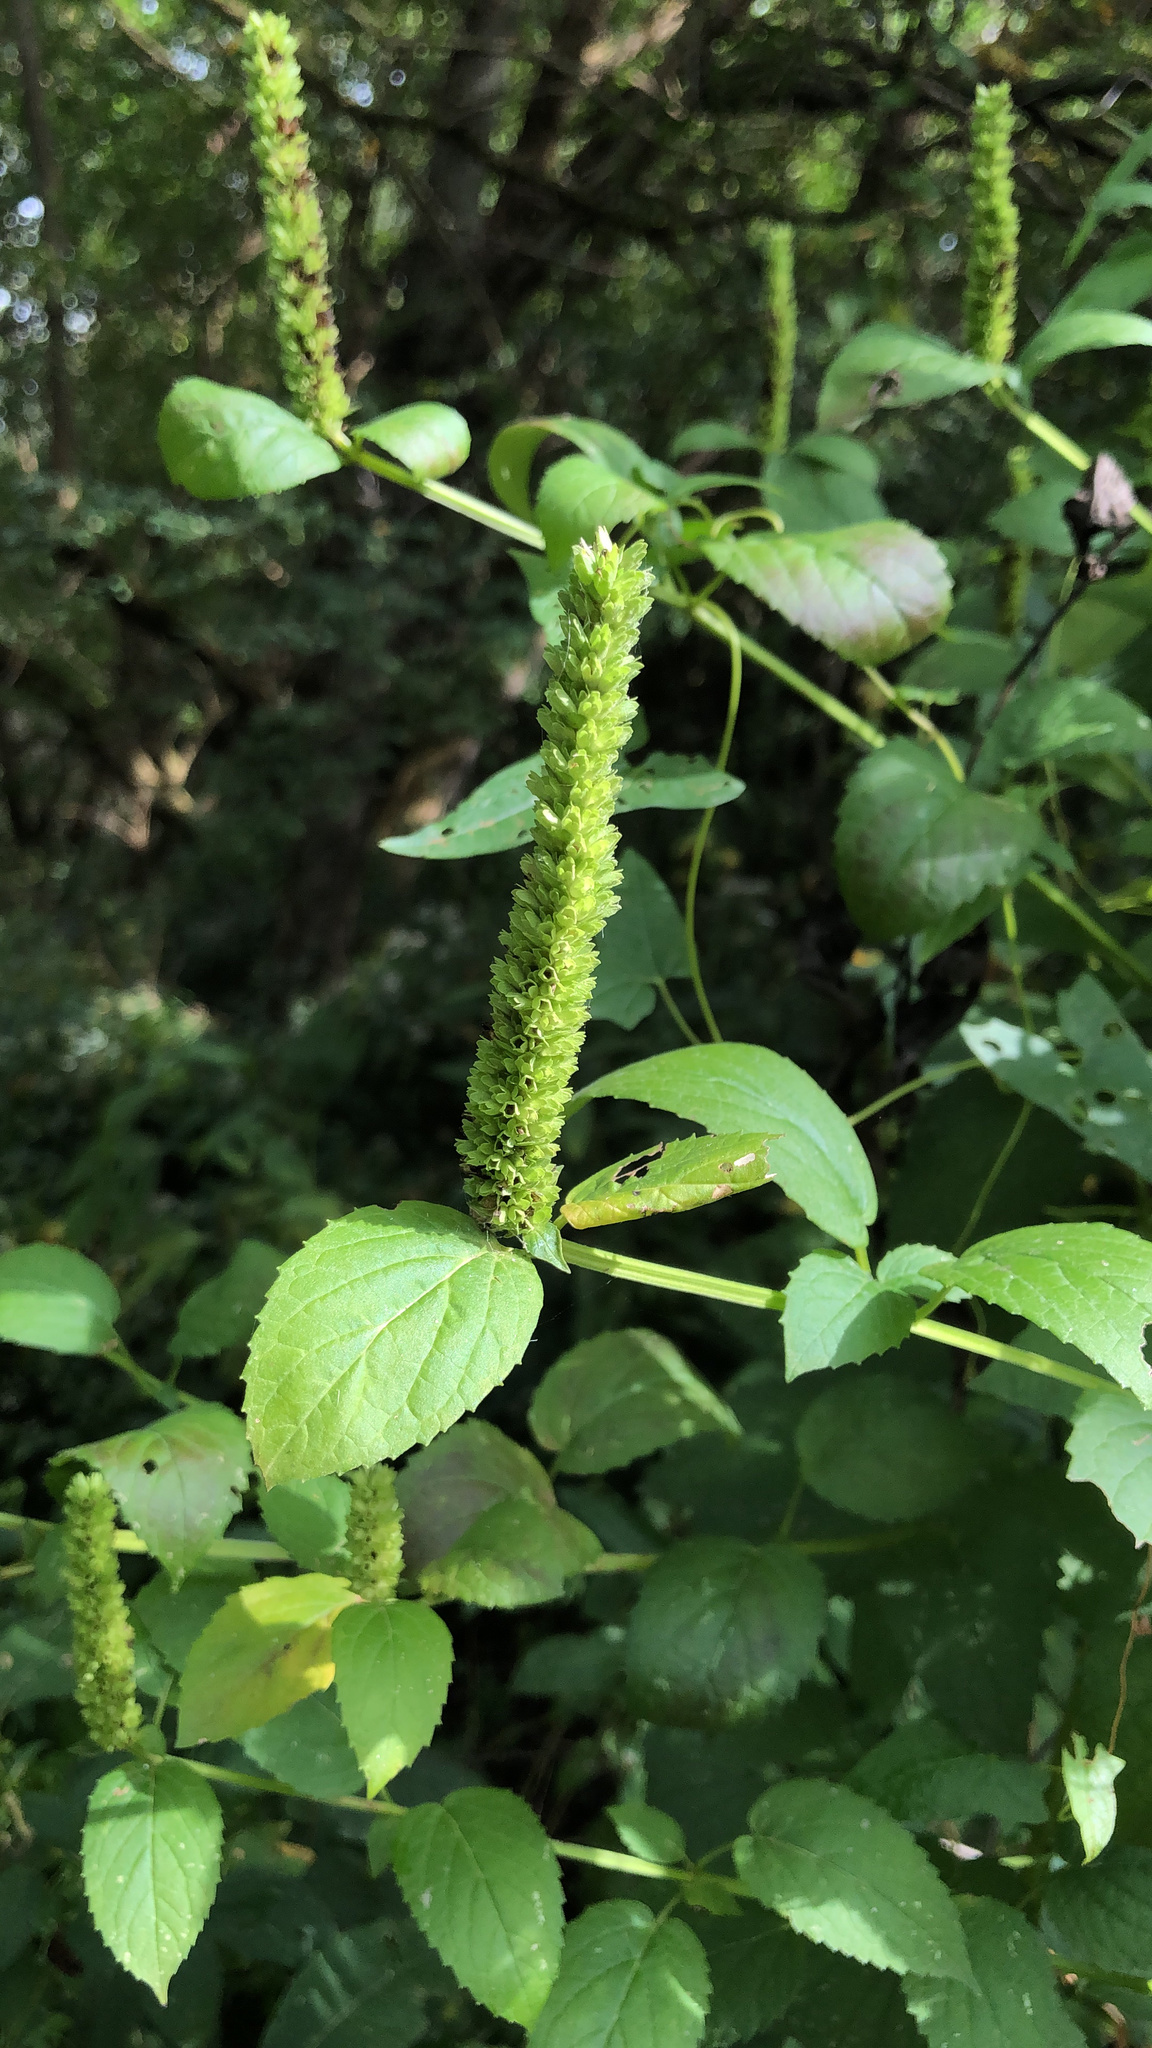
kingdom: Plantae
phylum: Tracheophyta
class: Magnoliopsida
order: Lamiales
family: Lamiaceae
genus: Agastache
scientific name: Agastache nepetoides
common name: Catnip giant hyssop
